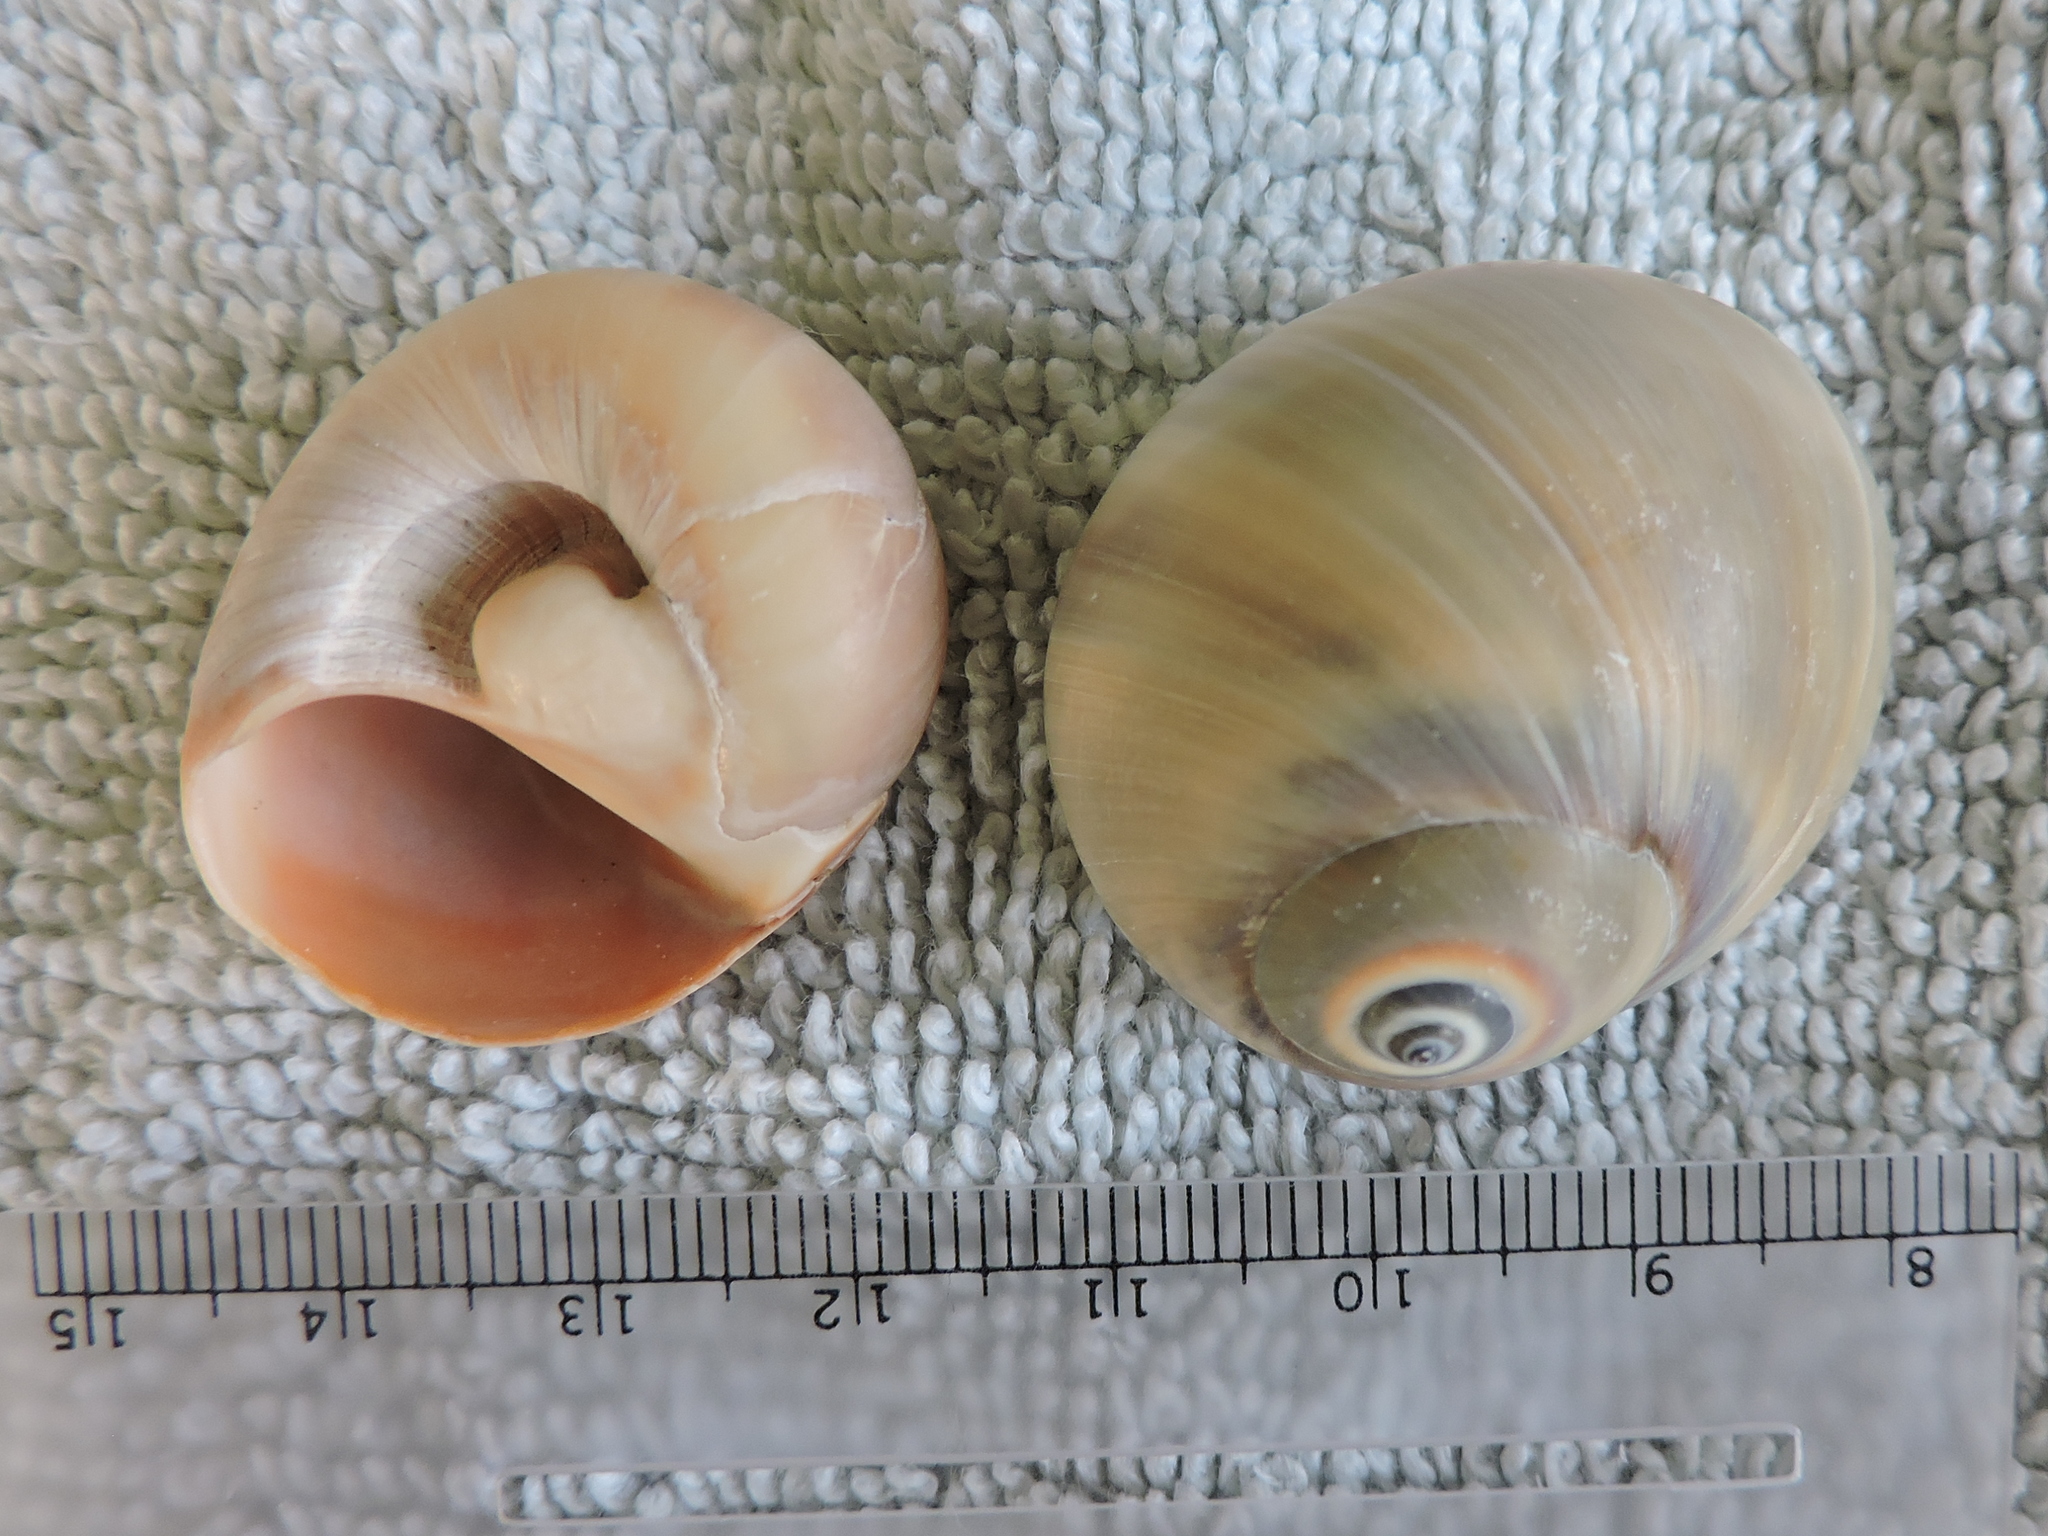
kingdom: Animalia
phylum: Mollusca
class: Gastropoda
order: Littorinimorpha
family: Naticidae
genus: Neverita
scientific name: Neverita delessertiana
